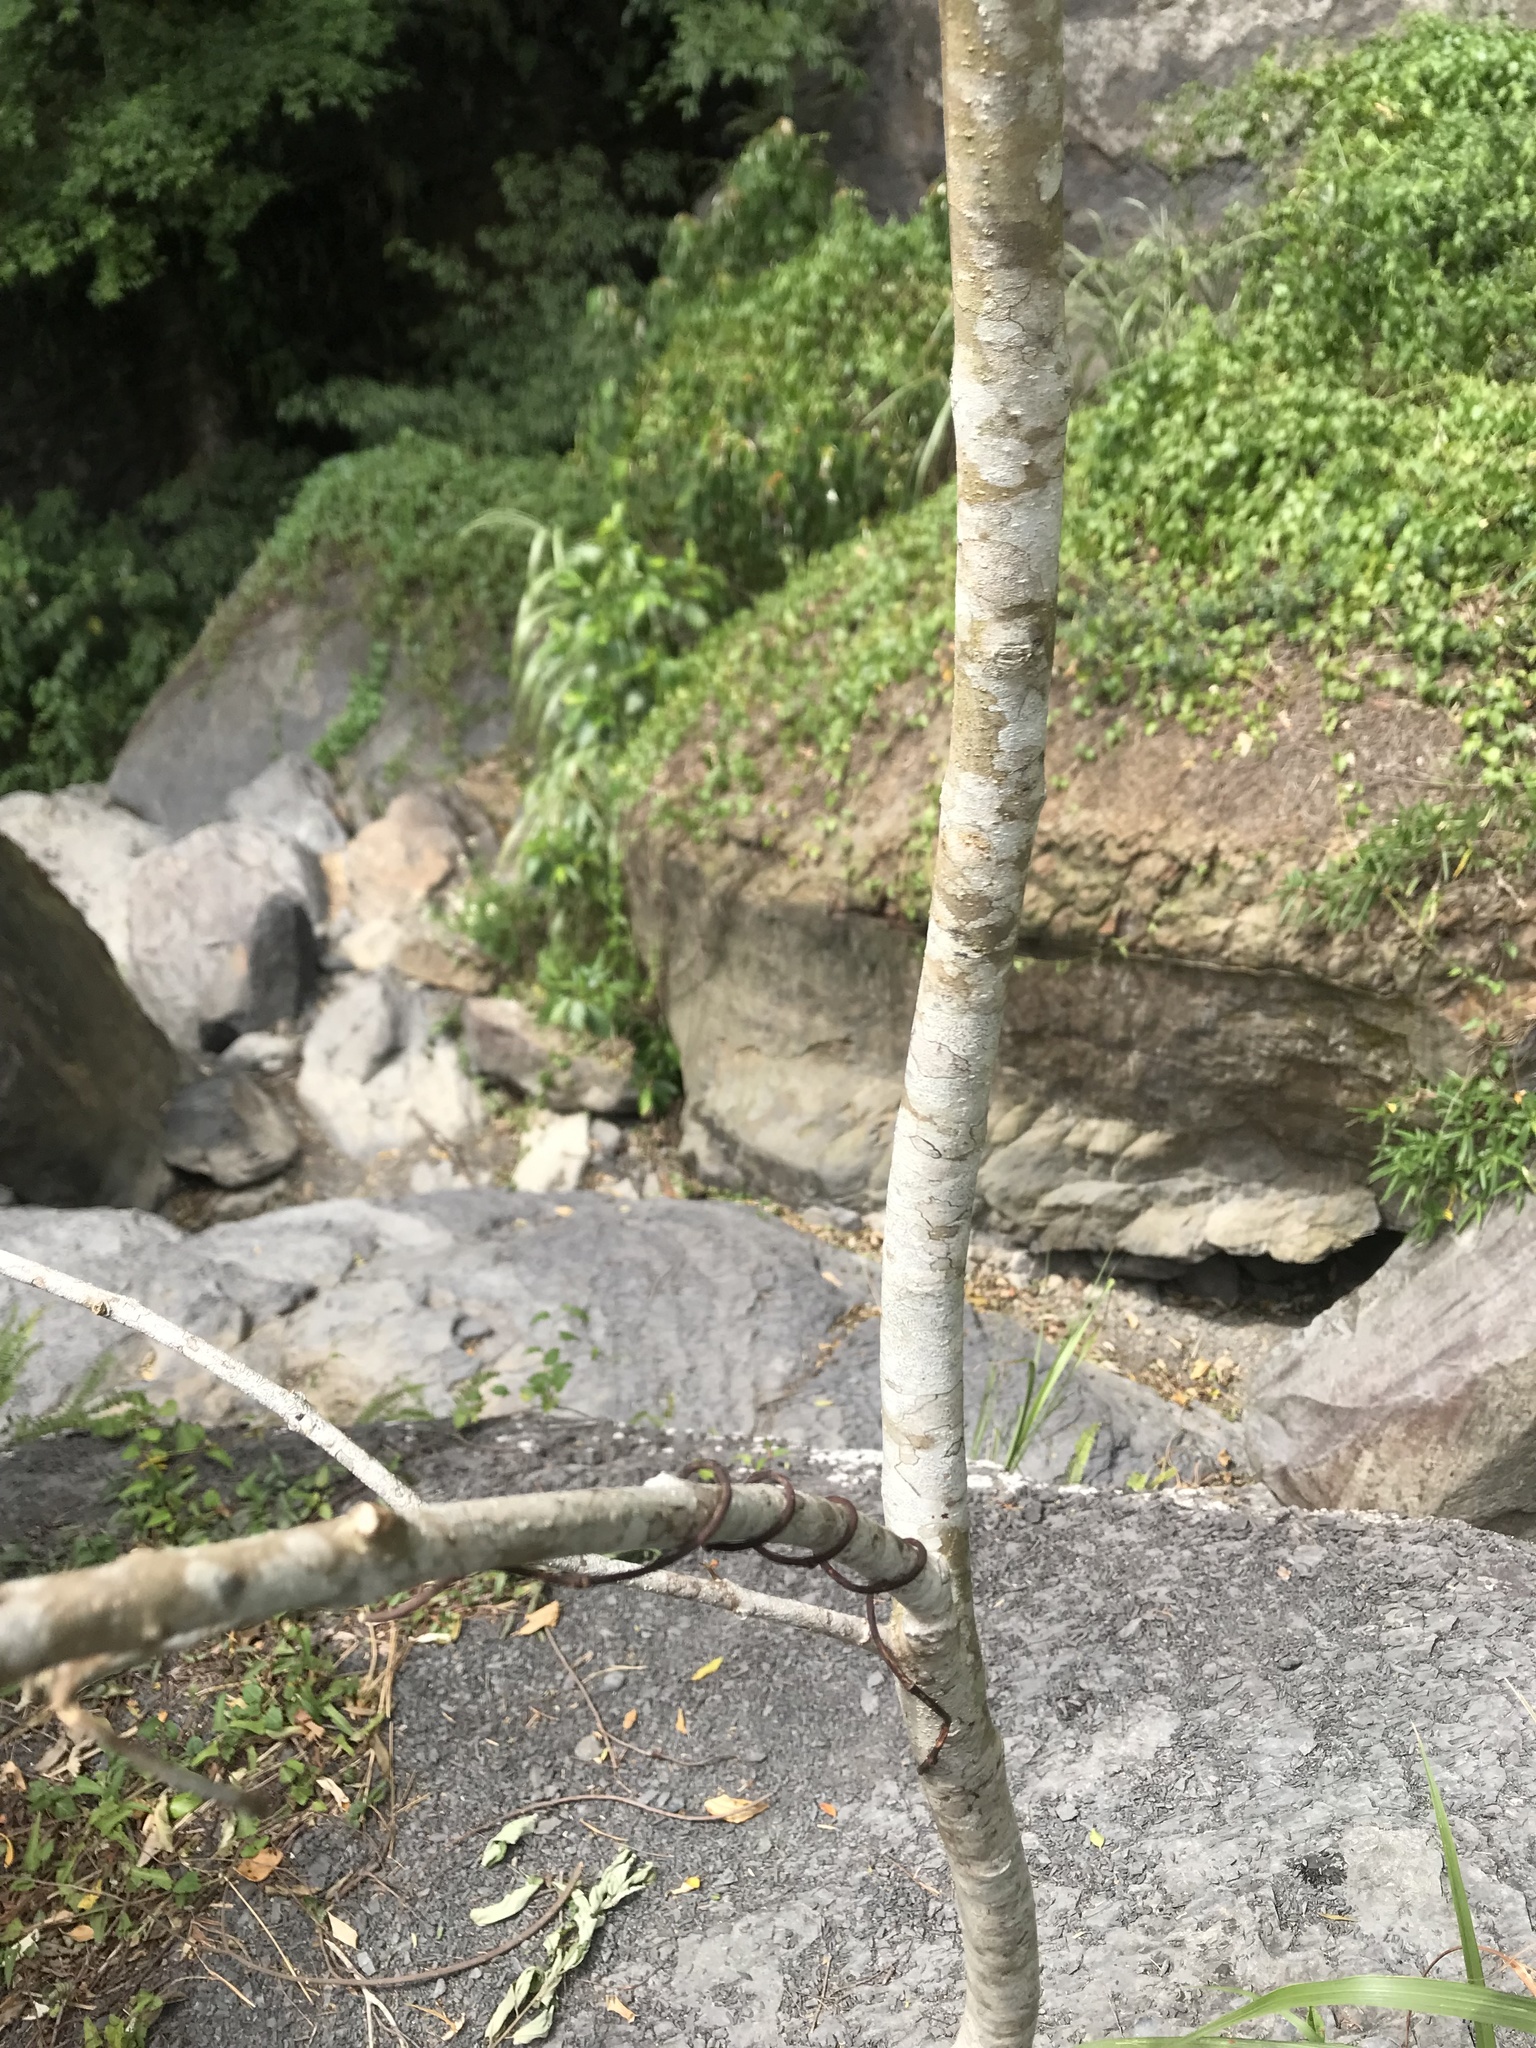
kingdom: Plantae
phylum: Tracheophyta
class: Magnoliopsida
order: Lamiales
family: Oleaceae
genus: Fraxinus
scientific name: Fraxinus griffithii
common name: Himalayan ash
